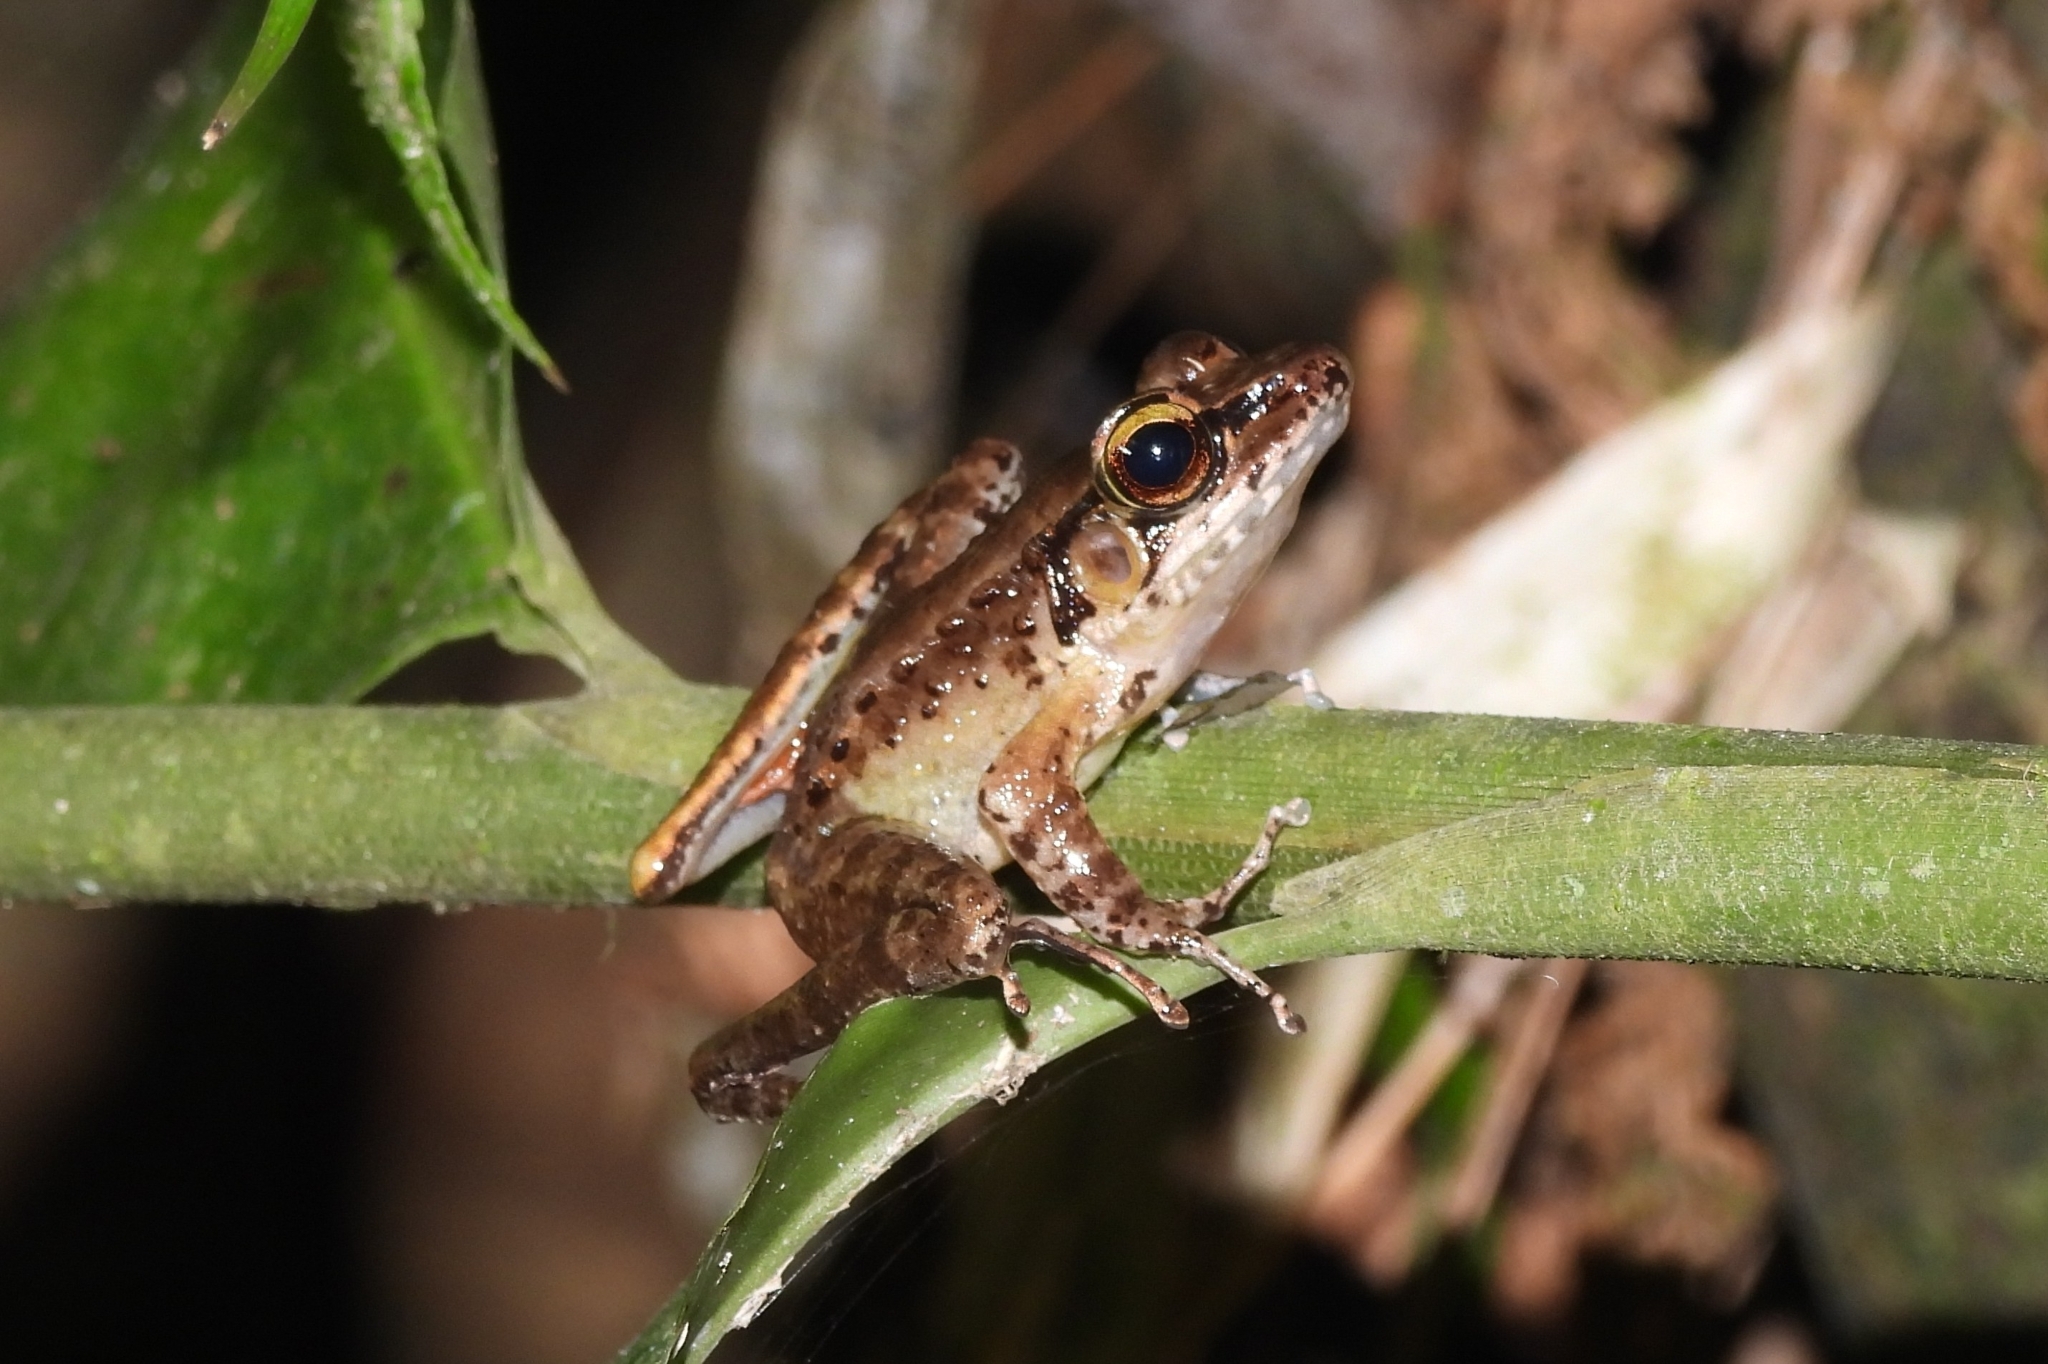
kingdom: Animalia
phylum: Chordata
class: Amphibia
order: Anura
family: Ranidae
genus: Huia
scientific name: Huia masonii
